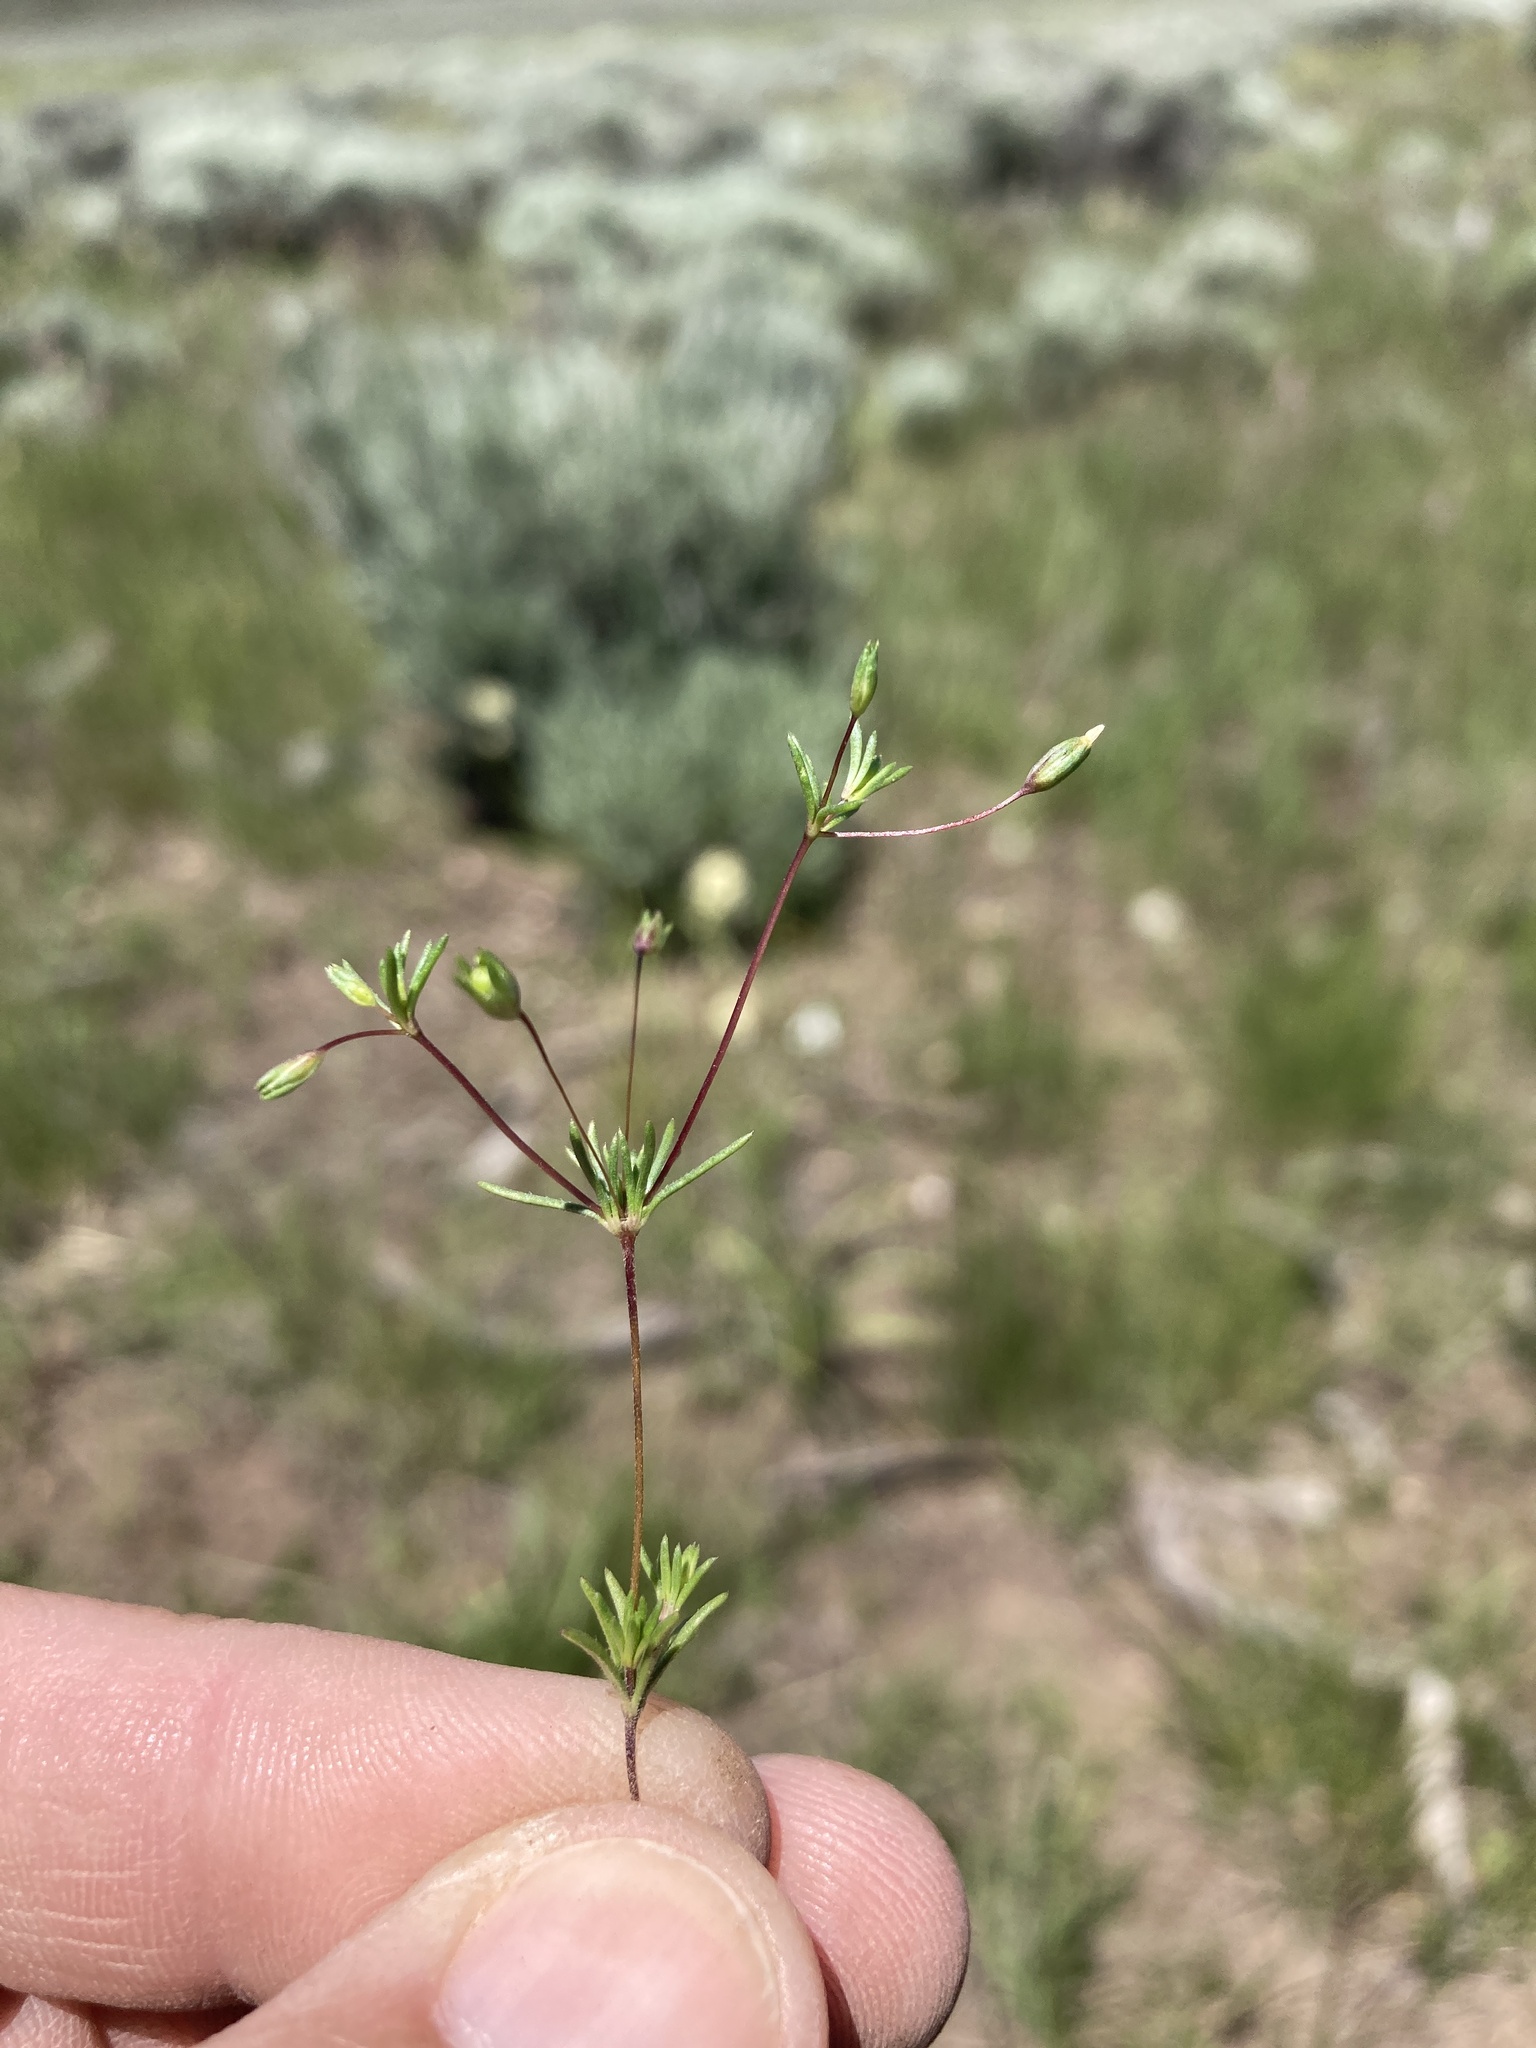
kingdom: Plantae
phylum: Tracheophyta
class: Magnoliopsida
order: Ericales
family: Polemoniaceae
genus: Leptosiphon
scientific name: Leptosiphon septentrionalis
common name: Northern linanthus
